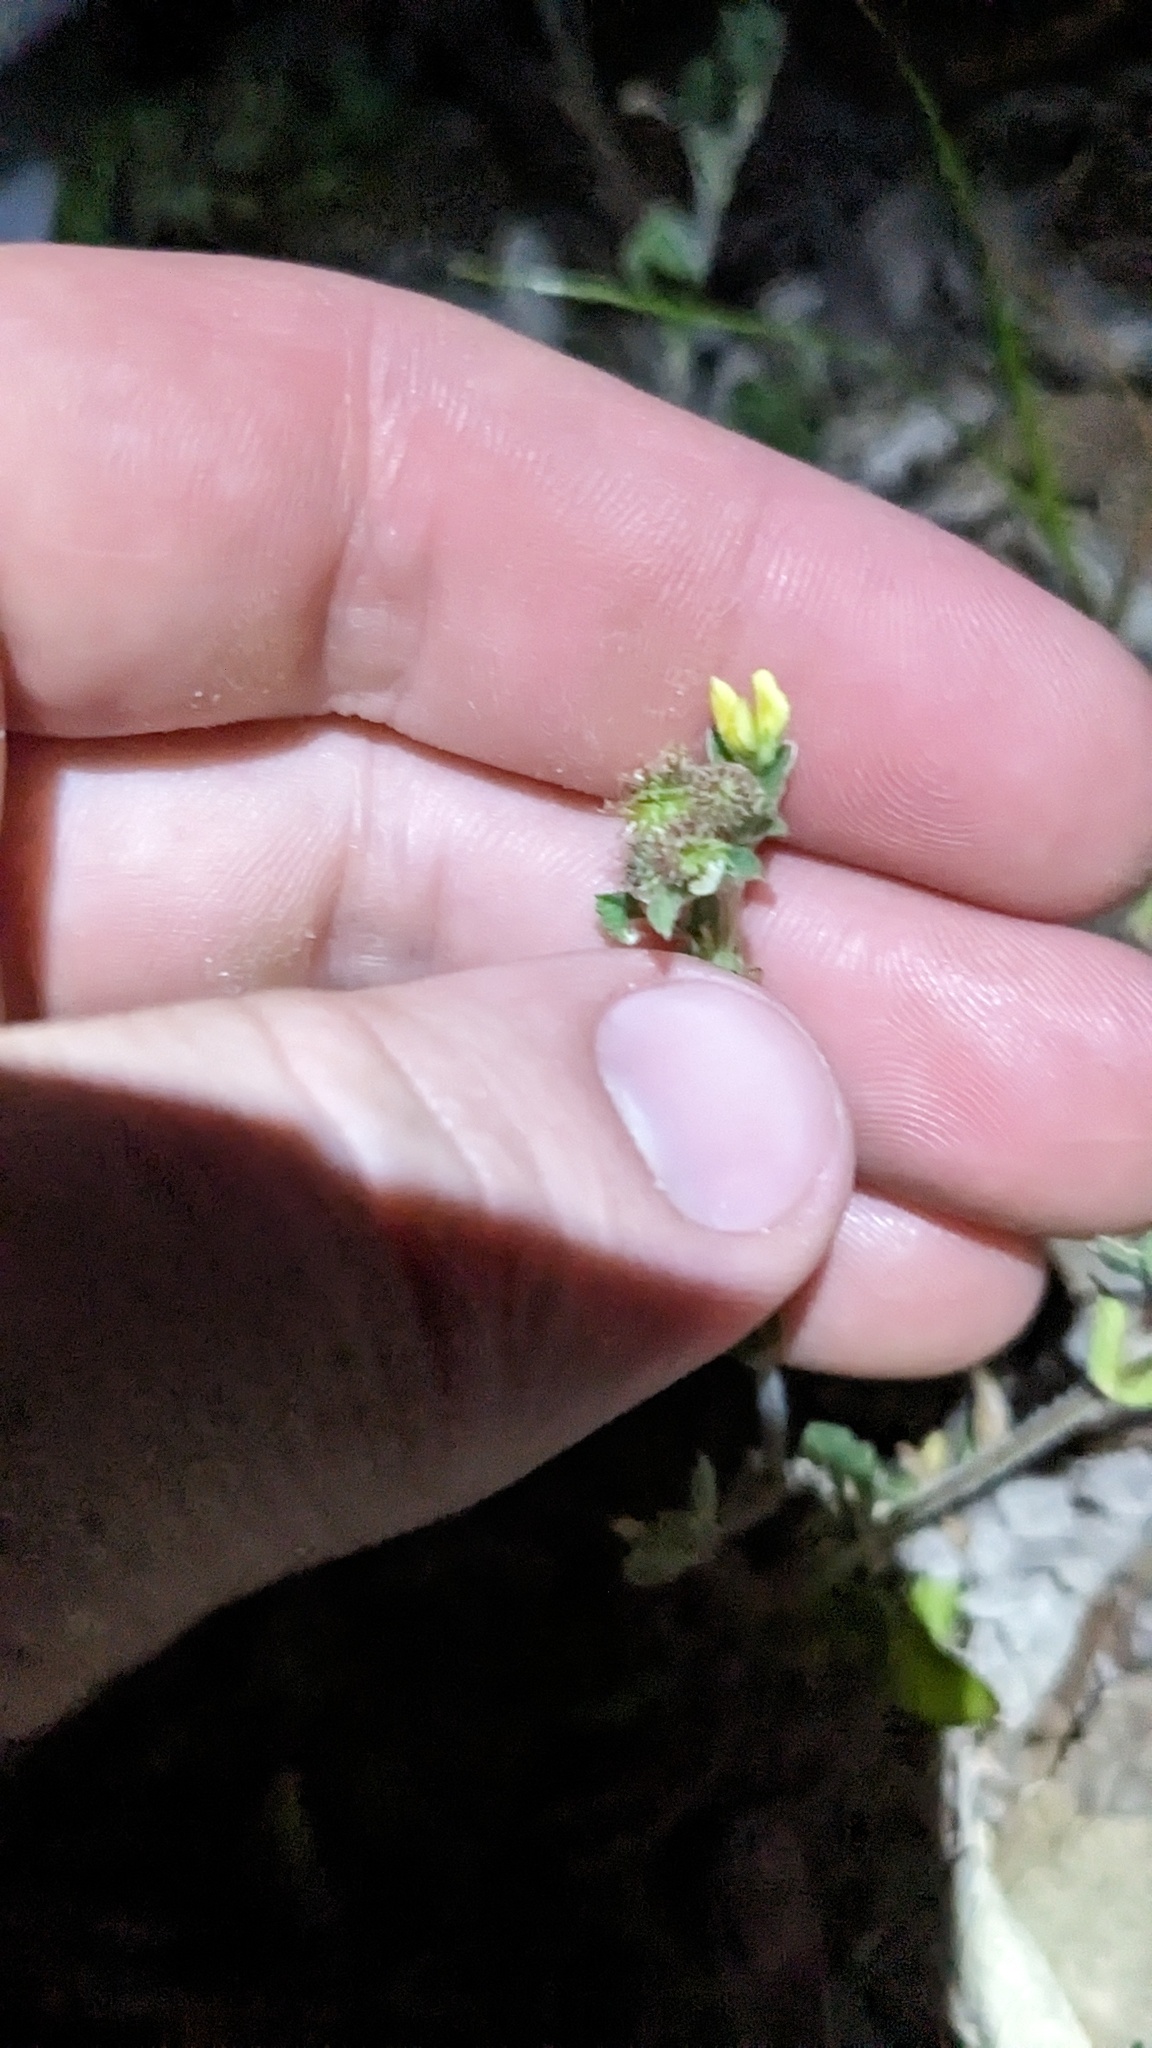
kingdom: Plantae
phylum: Tracheophyta
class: Magnoliopsida
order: Fabales
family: Fabaceae
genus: Medicago
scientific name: Medicago minima
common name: Little bur-clover
